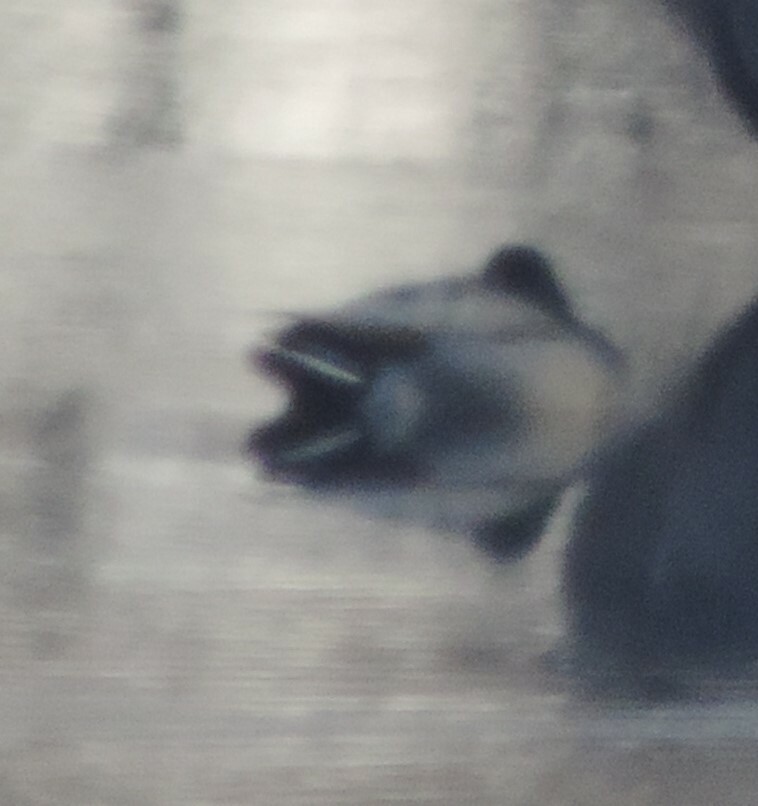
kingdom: Animalia
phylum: Chordata
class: Aves
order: Anseriformes
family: Anatidae
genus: Anas
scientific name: Anas platyrhynchos
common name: Mallard
